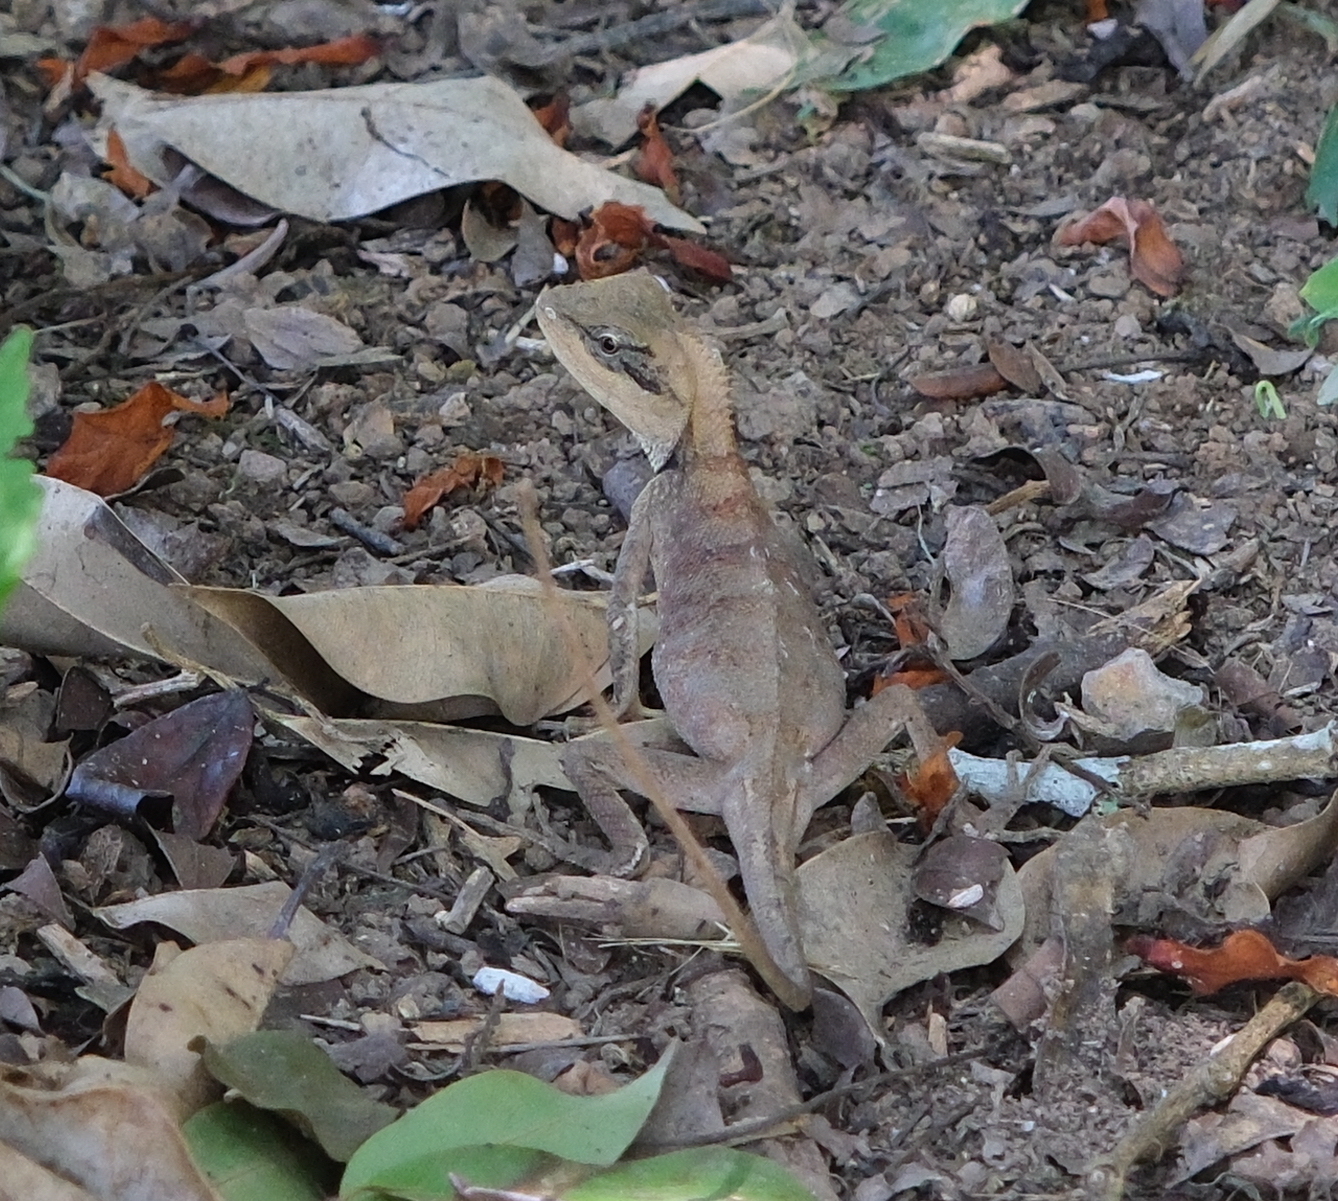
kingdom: Animalia
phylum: Chordata
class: Squamata
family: Agamidae
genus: Calotes
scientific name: Calotes emma
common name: Thailand bloodsucker
